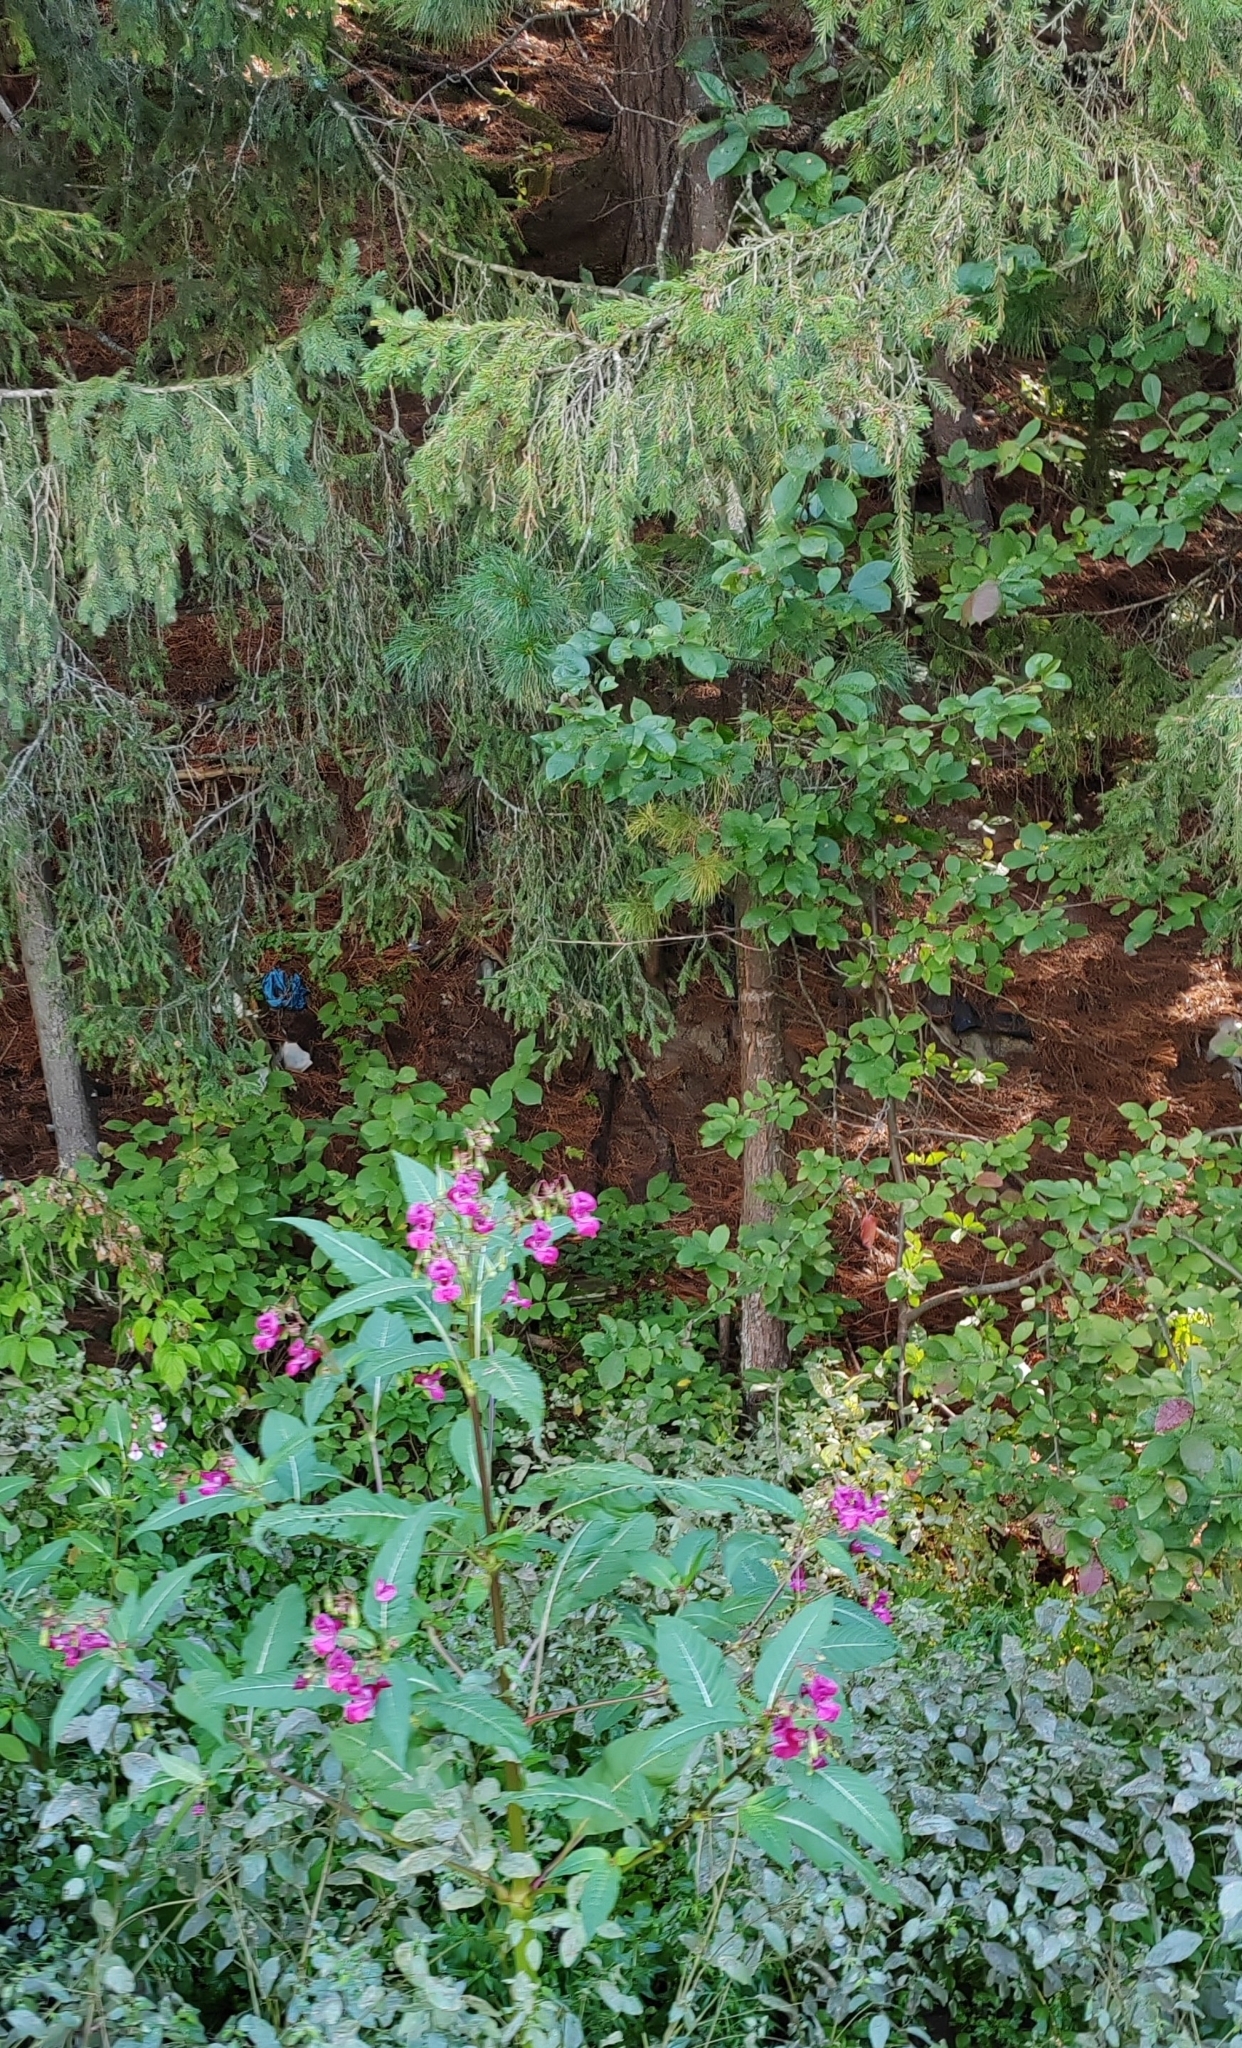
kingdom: Plantae
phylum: Tracheophyta
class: Magnoliopsida
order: Ericales
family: Balsaminaceae
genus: Impatiens
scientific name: Impatiens glandulifera
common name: Himalayan balsam
